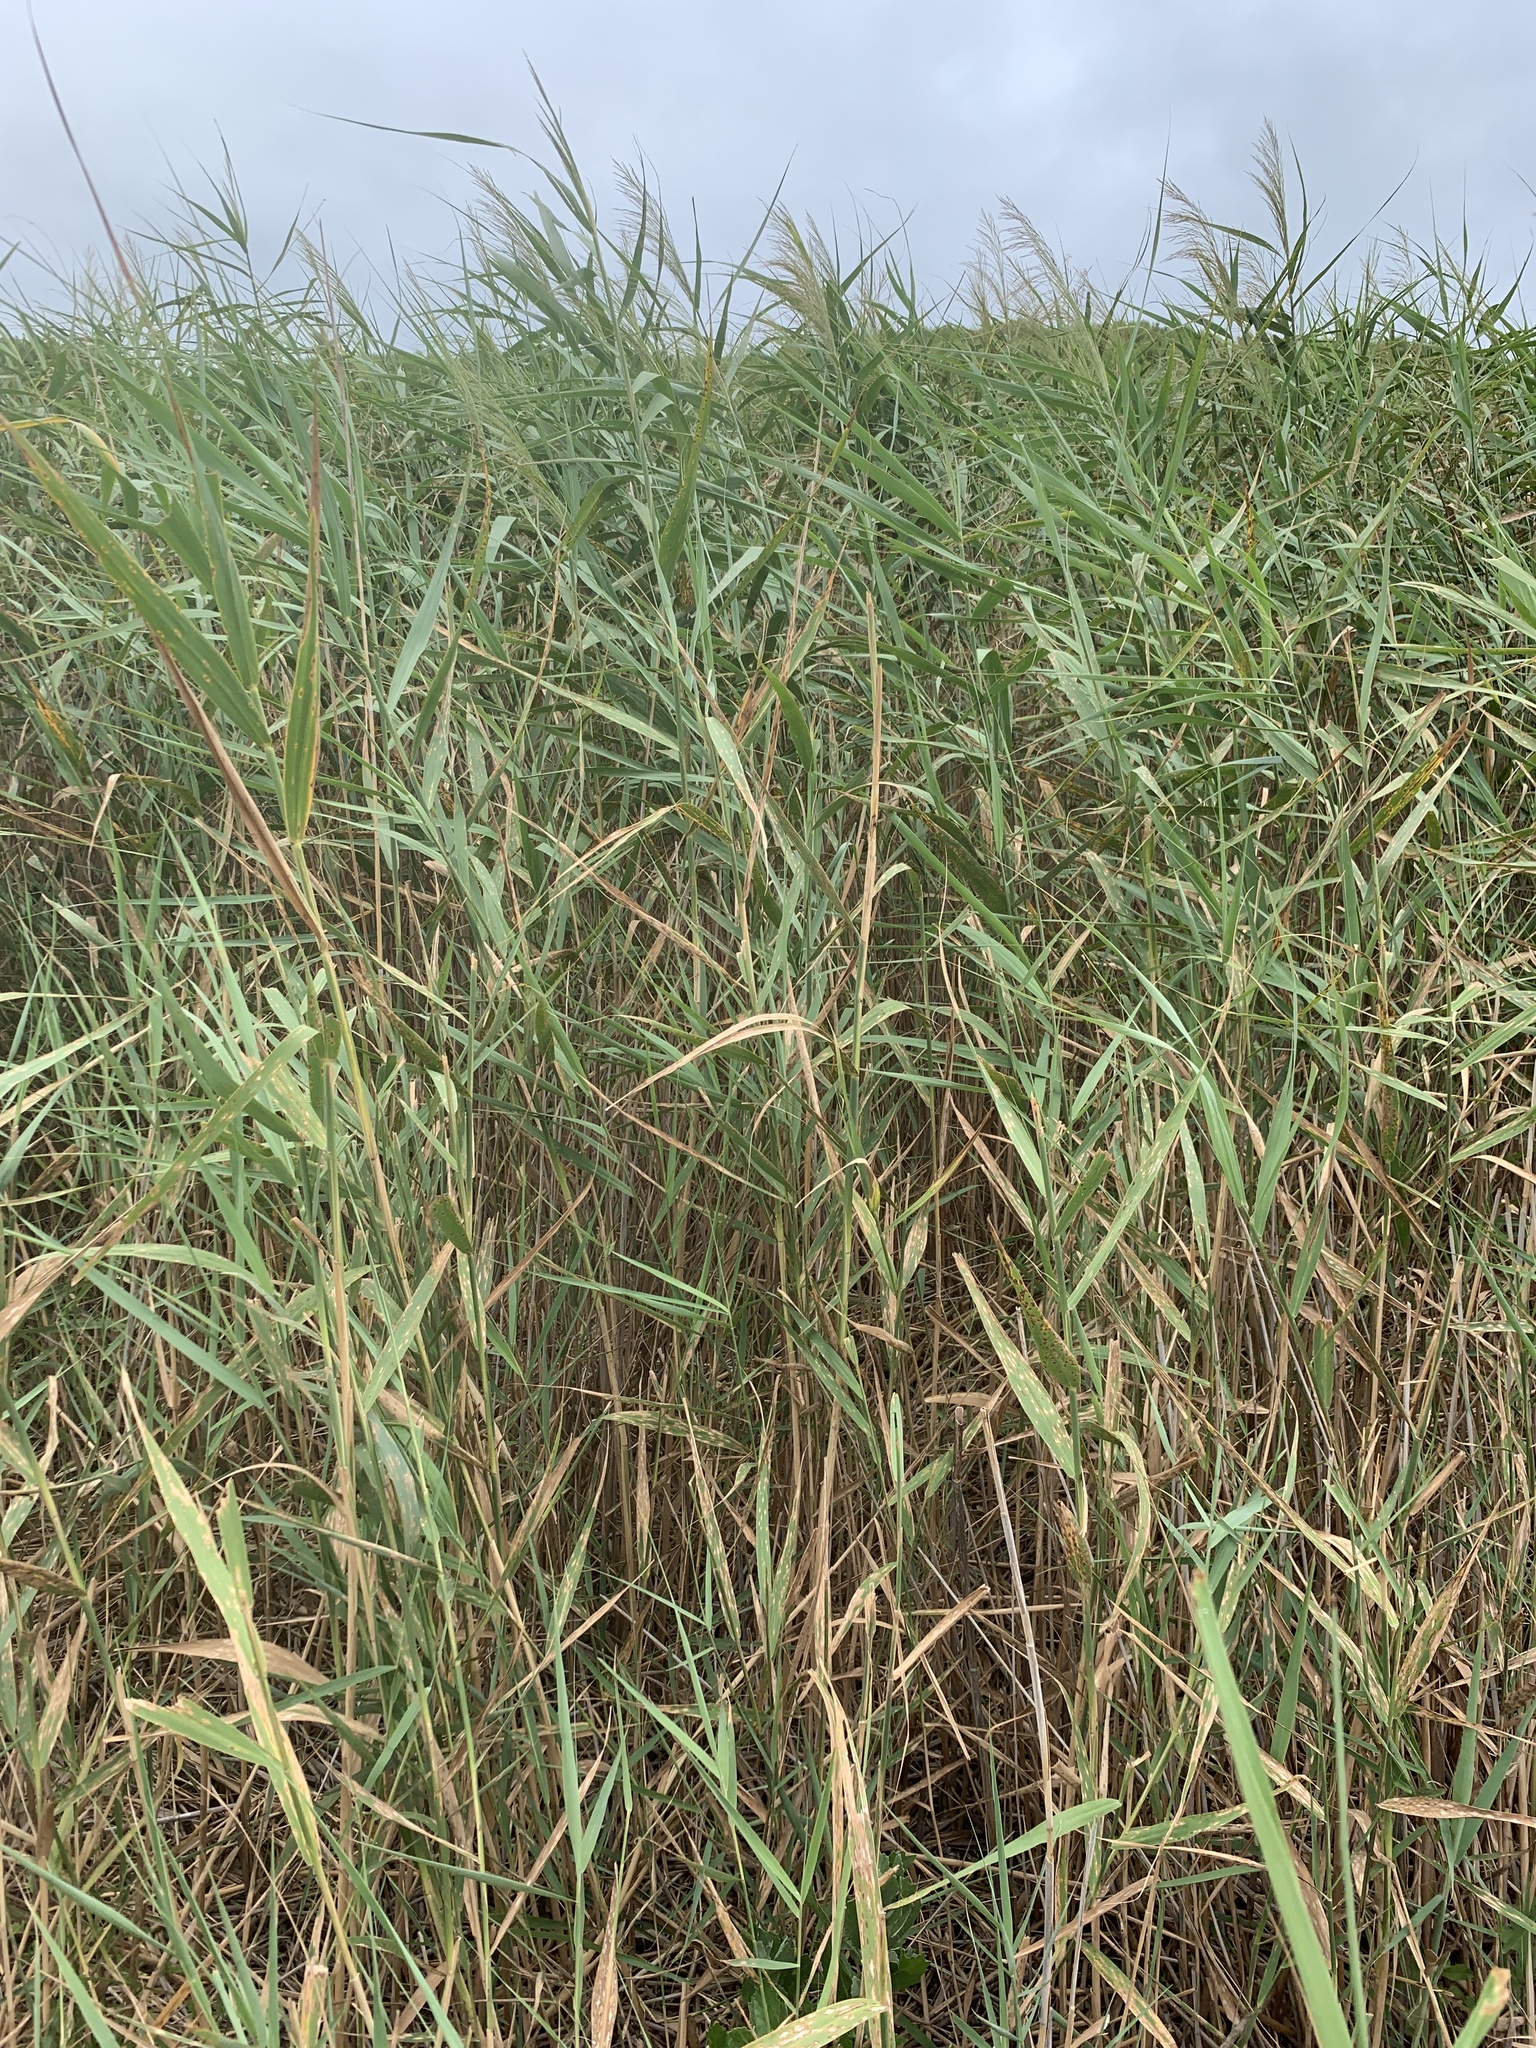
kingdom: Plantae
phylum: Tracheophyta
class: Liliopsida
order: Poales
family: Poaceae
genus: Phragmites
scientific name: Phragmites australis
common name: Common reed
